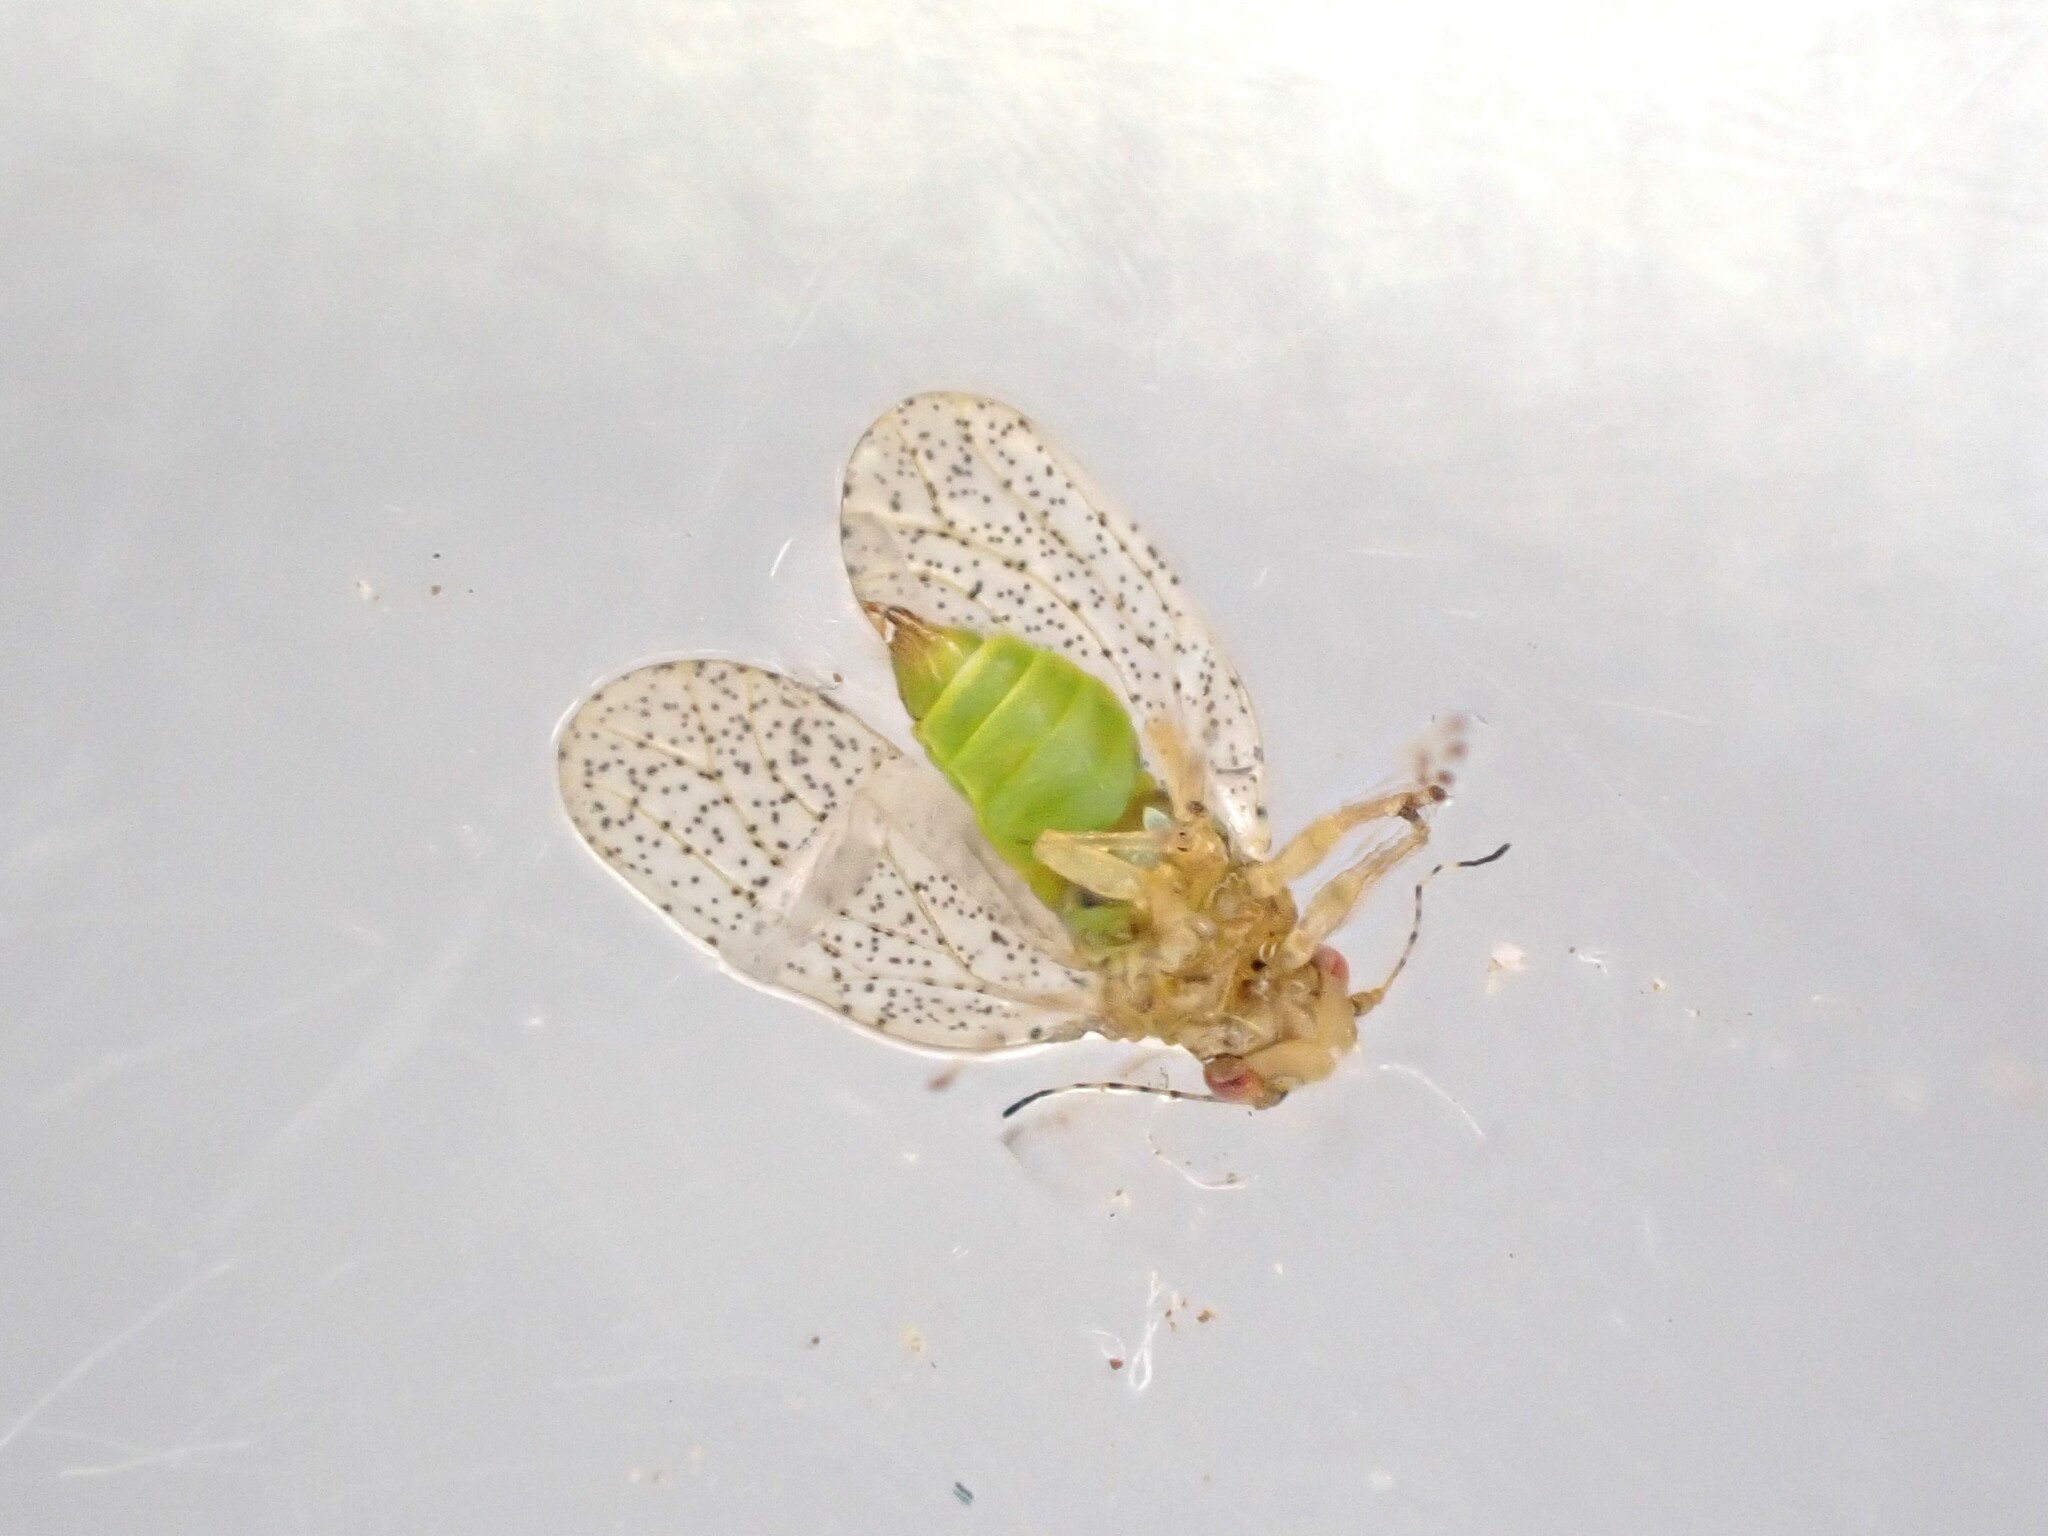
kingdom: Animalia
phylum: Arthropoda
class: Insecta
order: Hemiptera
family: Psyllidae
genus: Psylla
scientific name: Psylla frodobagginsi
